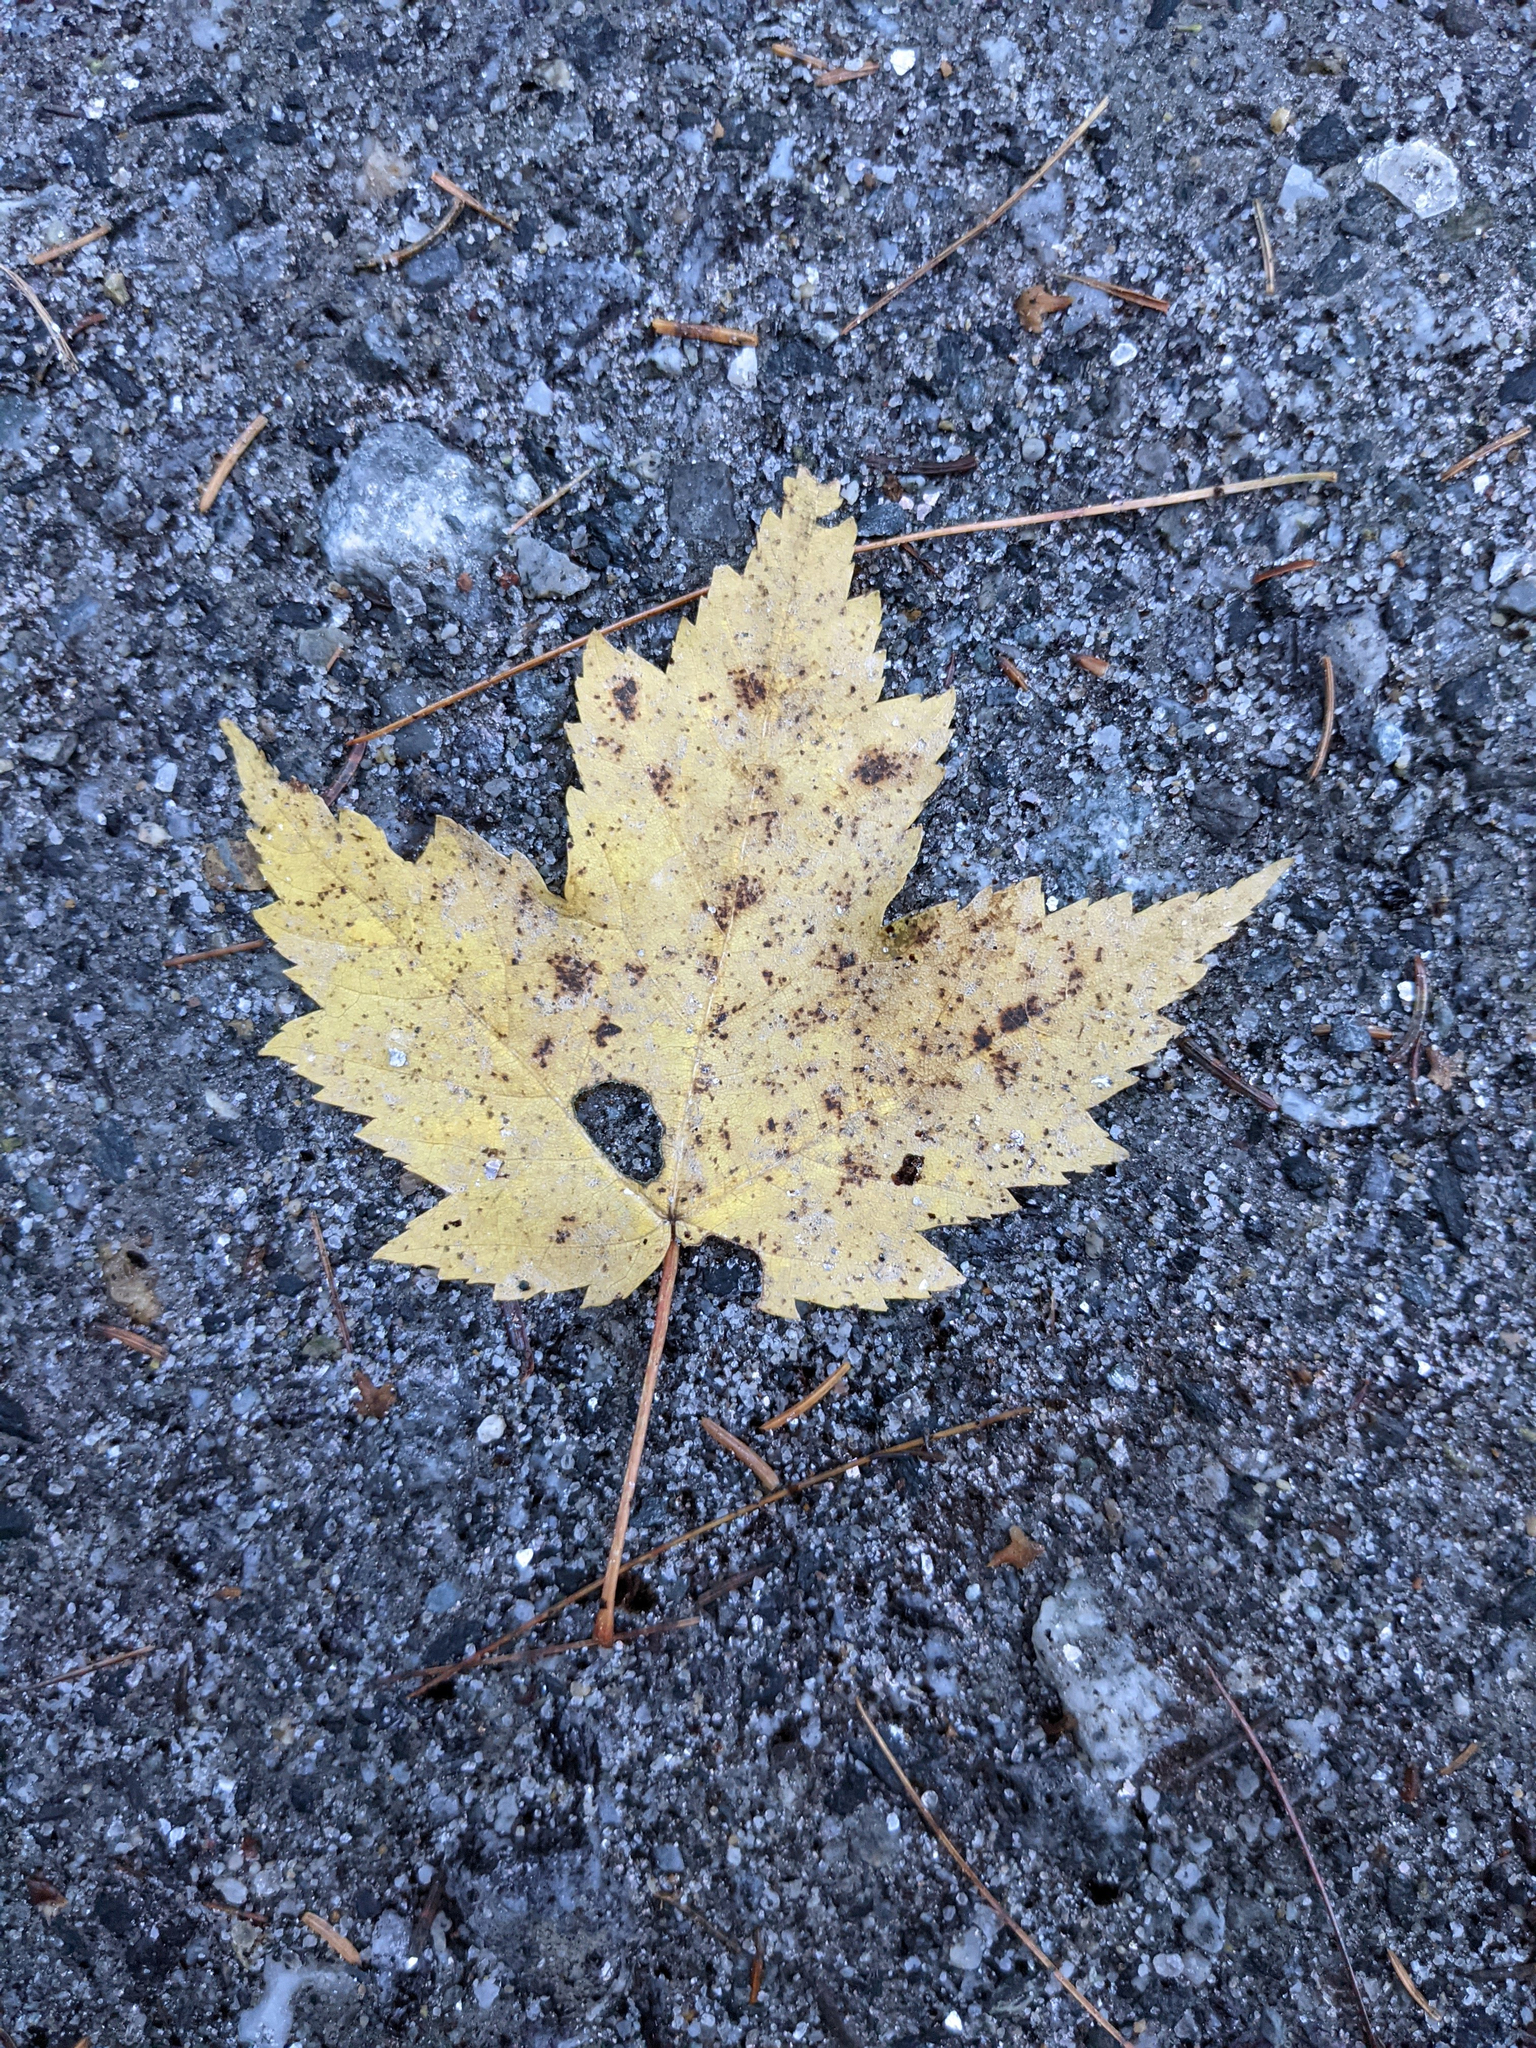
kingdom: Plantae
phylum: Tracheophyta
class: Magnoliopsida
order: Sapindales
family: Sapindaceae
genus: Acer
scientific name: Acer rubrum
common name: Red maple
